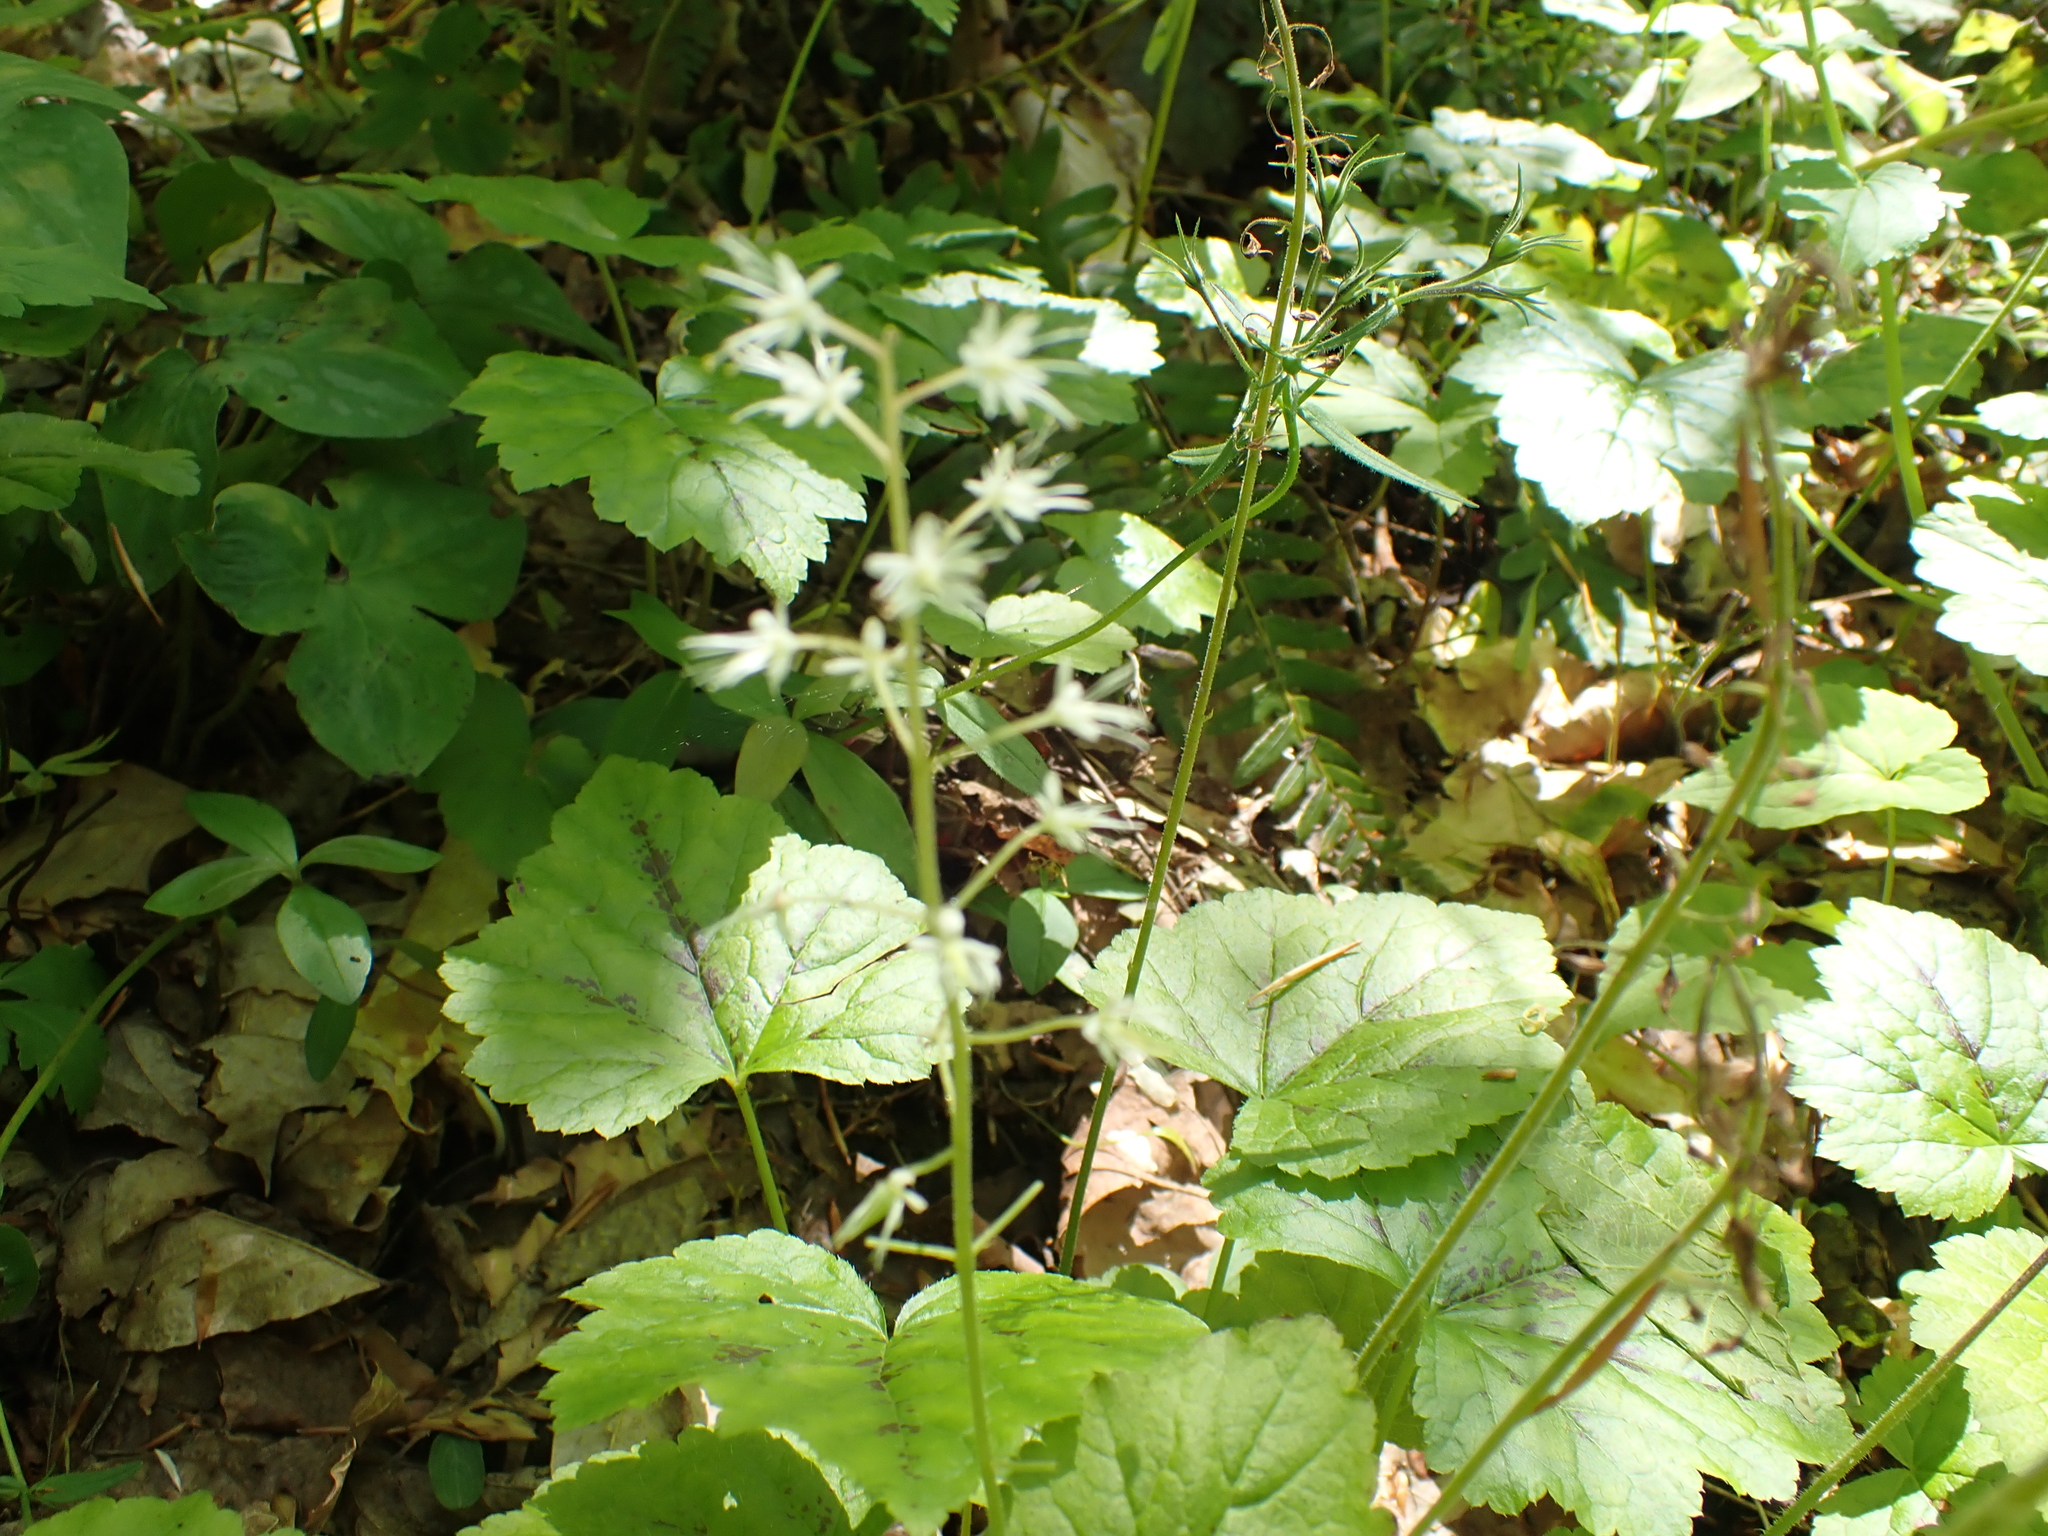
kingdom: Plantae
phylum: Tracheophyta
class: Magnoliopsida
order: Saxifragales
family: Saxifragaceae
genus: Tiarella
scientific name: Tiarella stolonifera
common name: Stoloniferous foamflower
